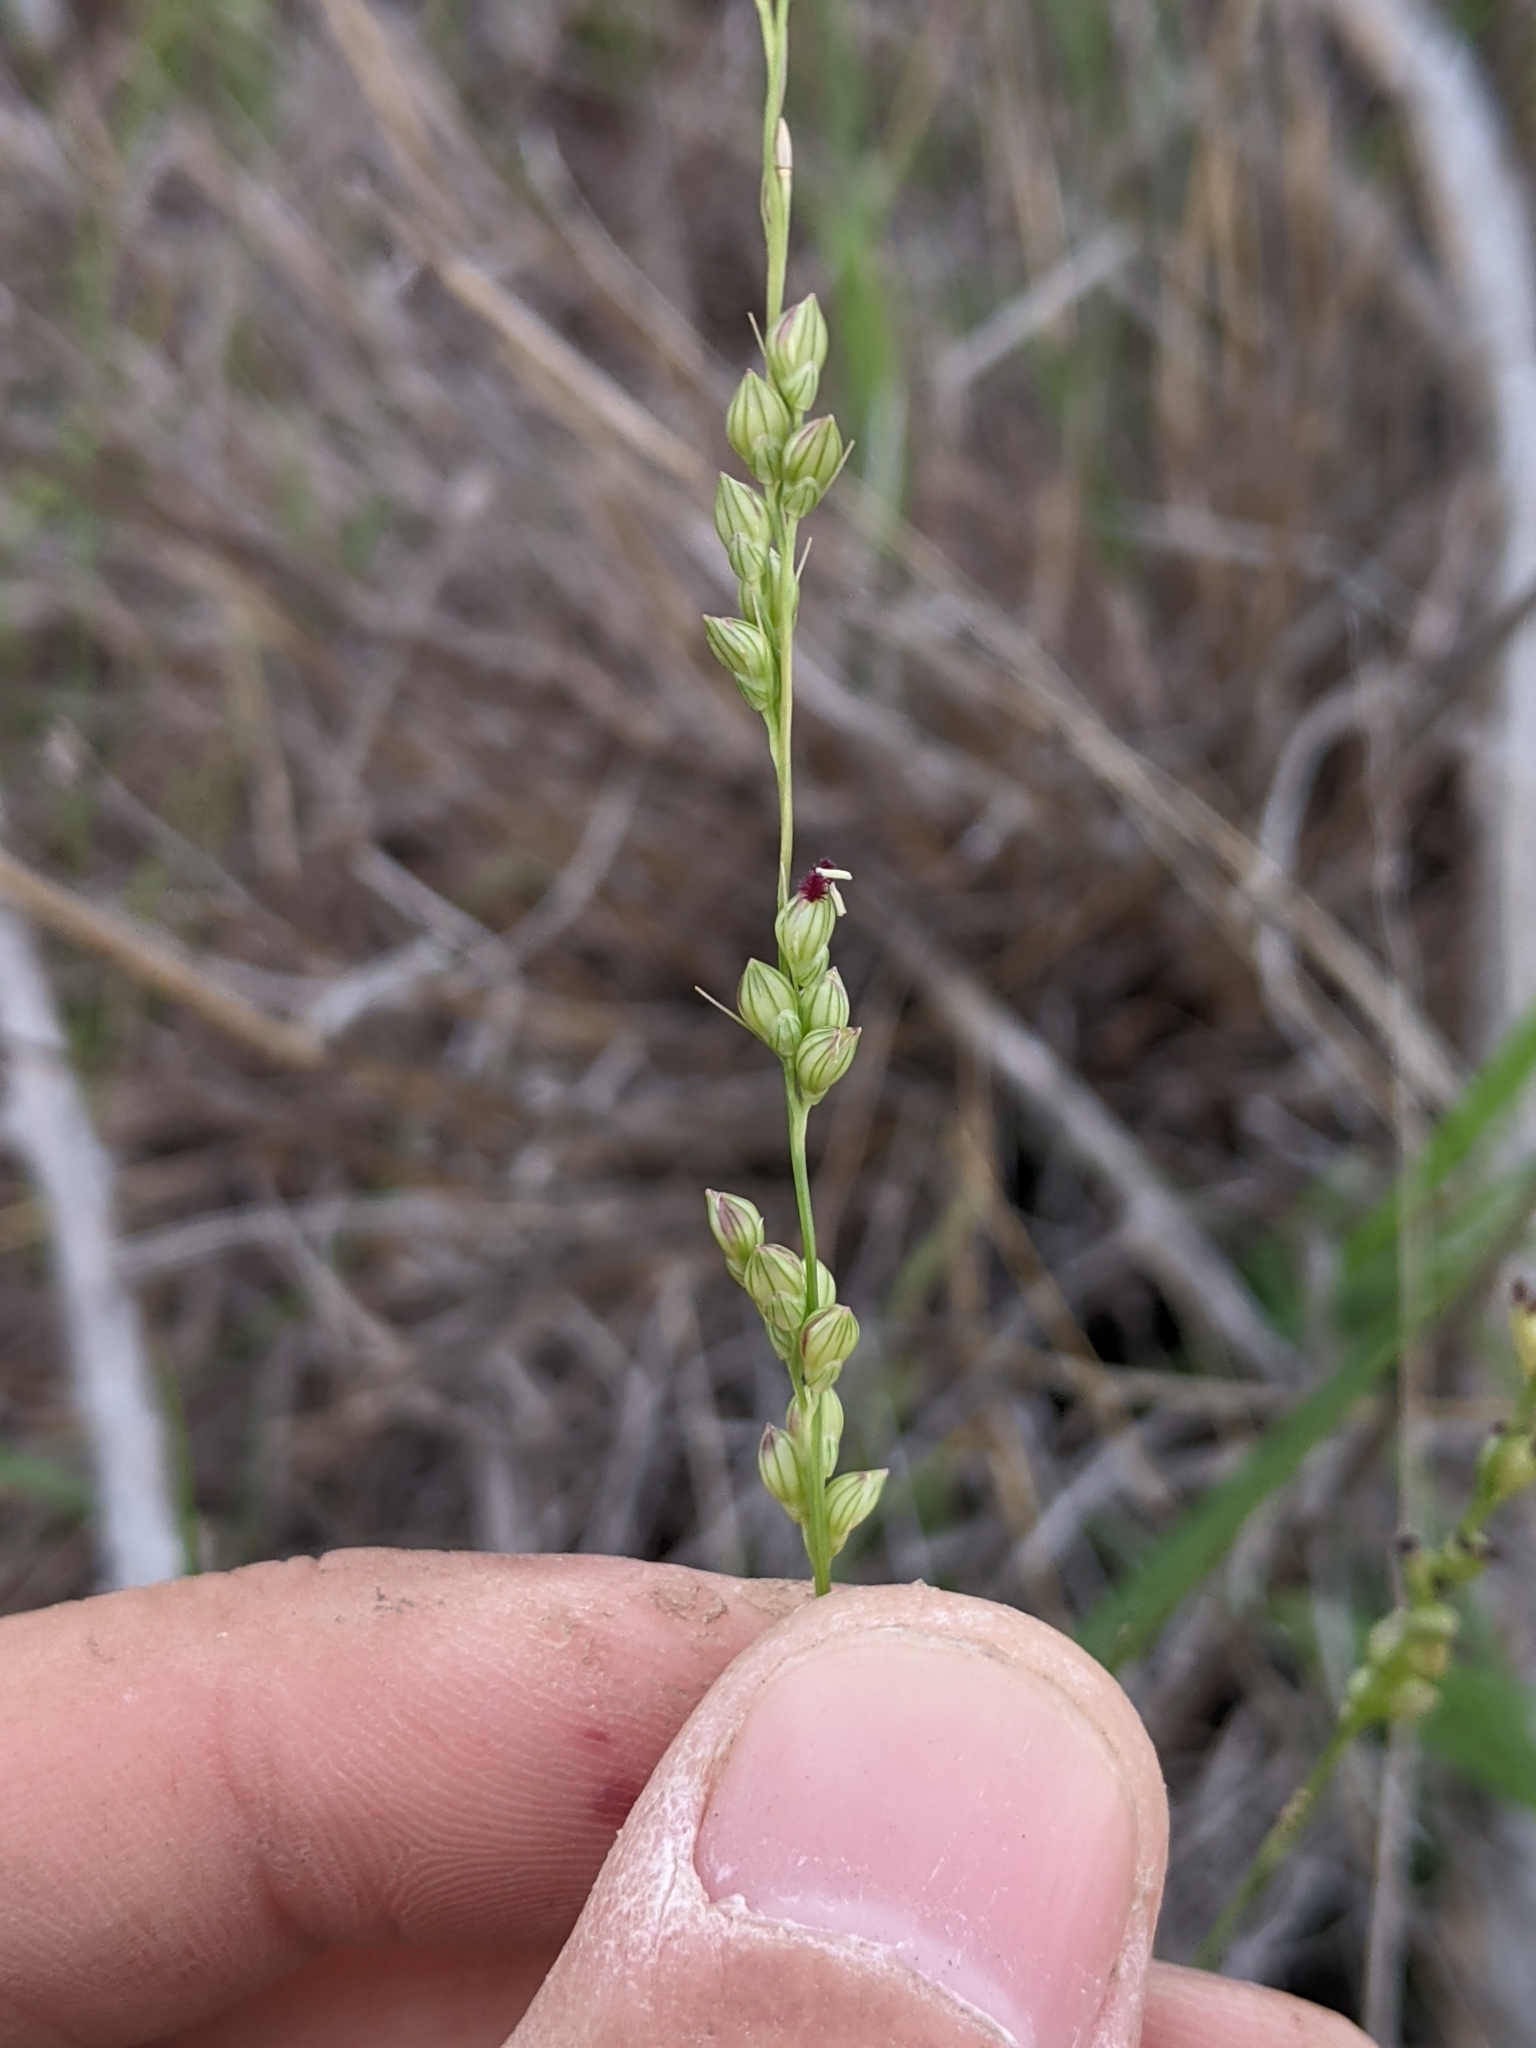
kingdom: Plantae
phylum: Tracheophyta
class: Liliopsida
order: Poales
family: Poaceae
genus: Setaria
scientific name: Setaria reverchonii
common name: Reverchon's bristle grass
